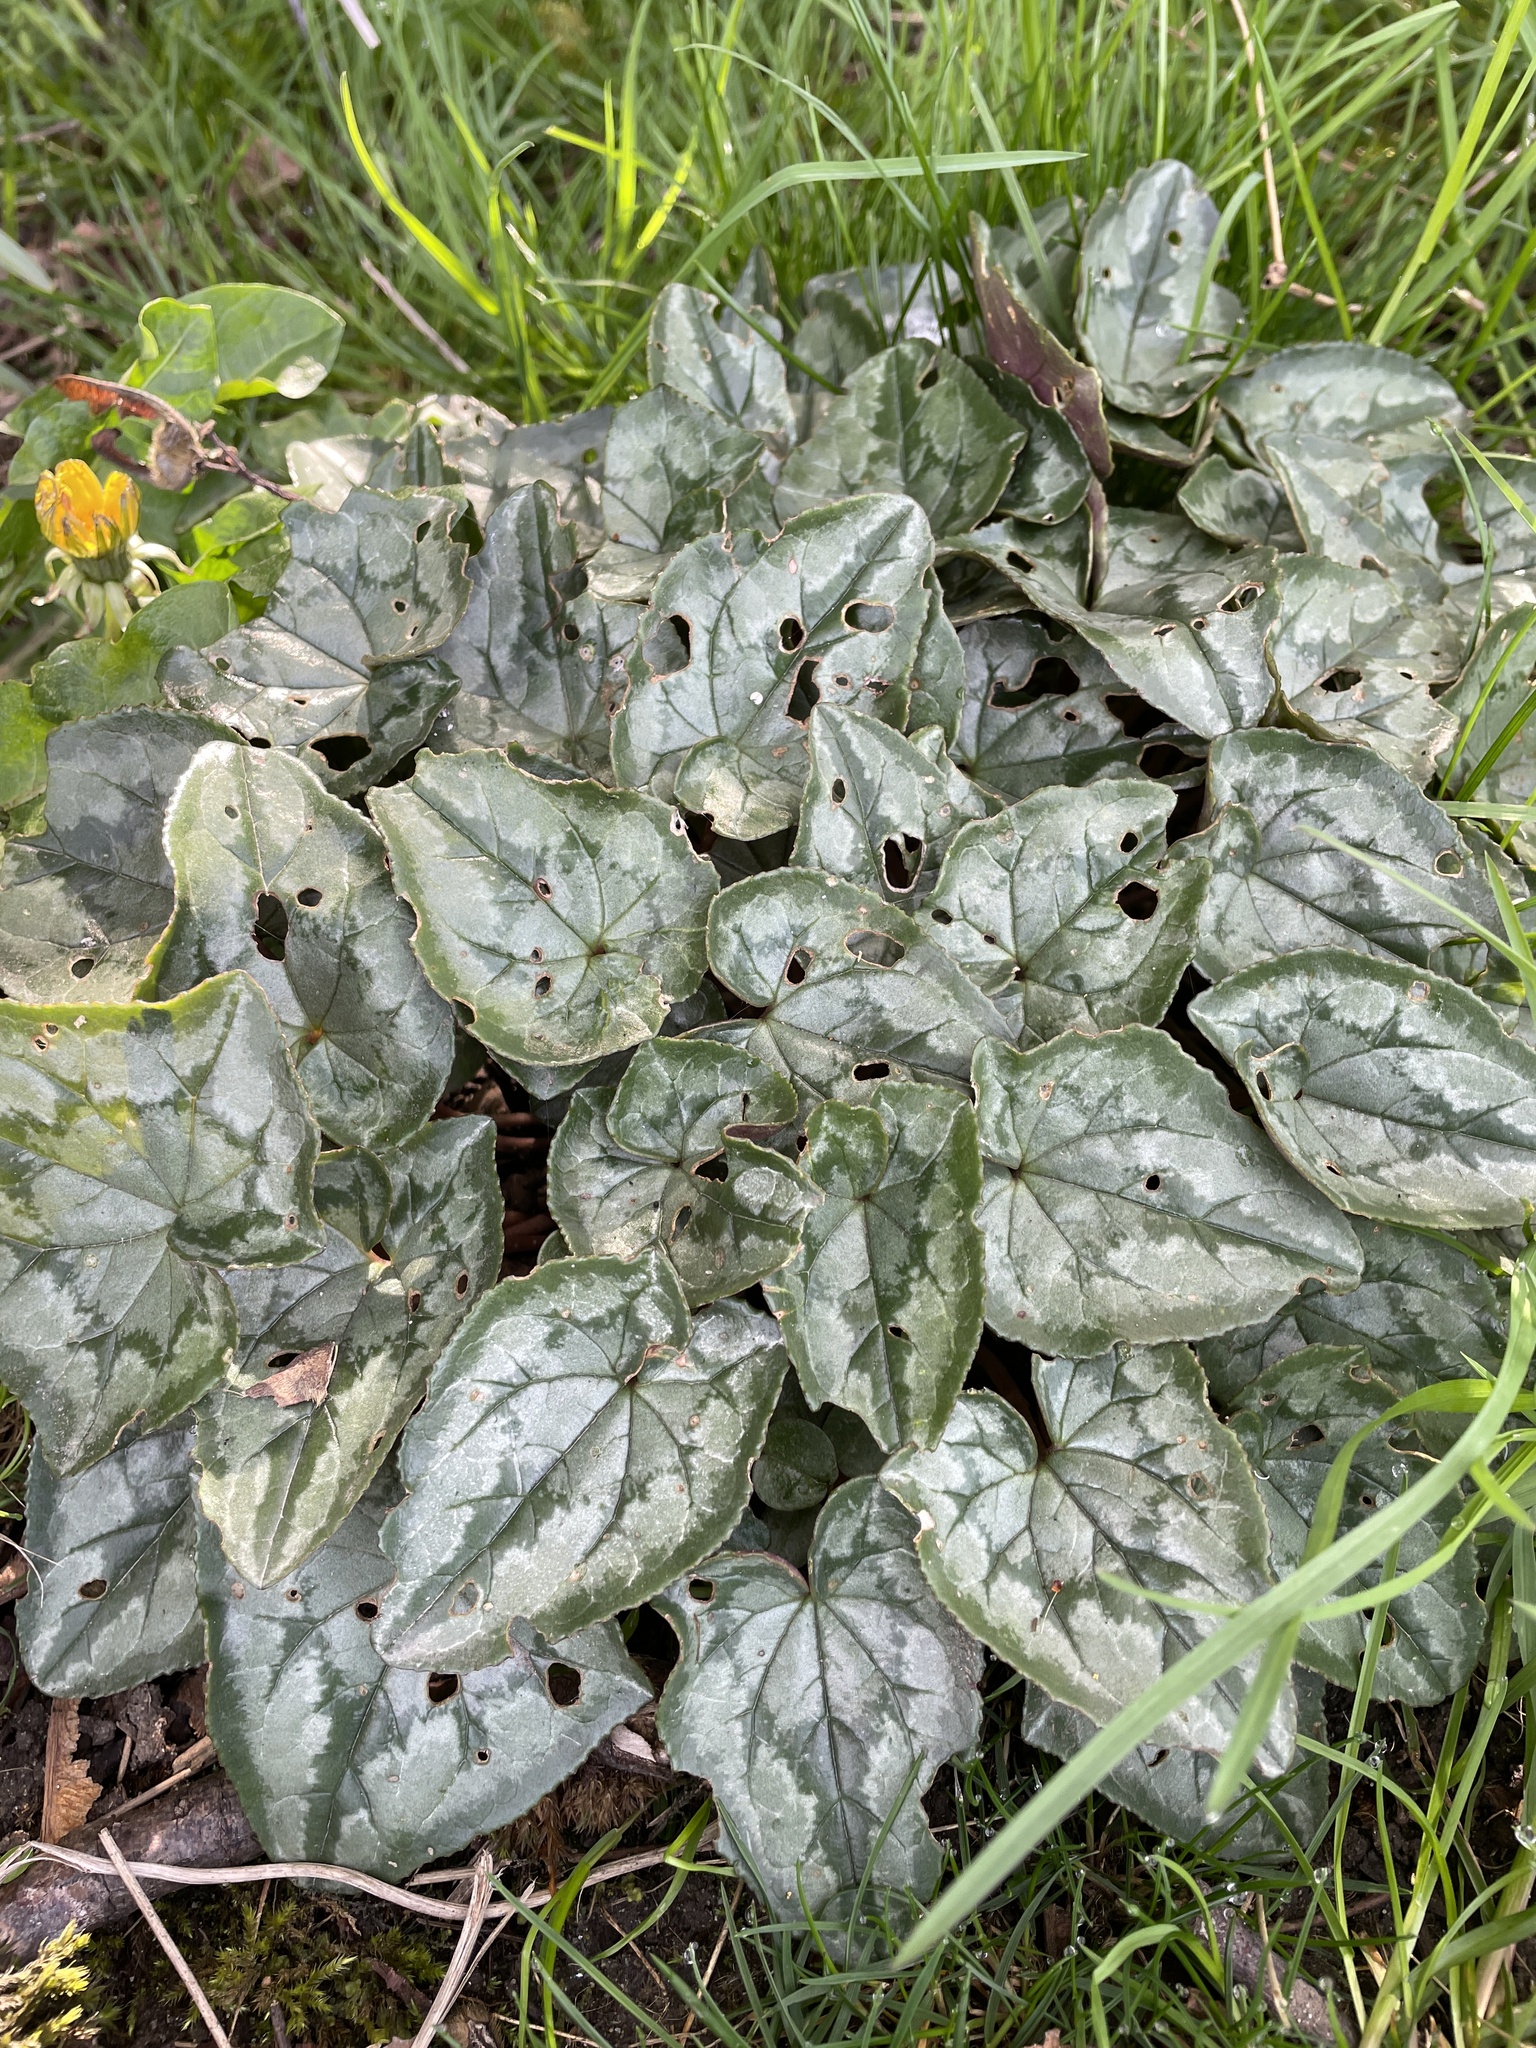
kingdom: Plantae
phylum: Tracheophyta
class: Magnoliopsida
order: Ericales
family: Primulaceae
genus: Cyclamen
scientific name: Cyclamen hederifolium
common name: Sowbread
